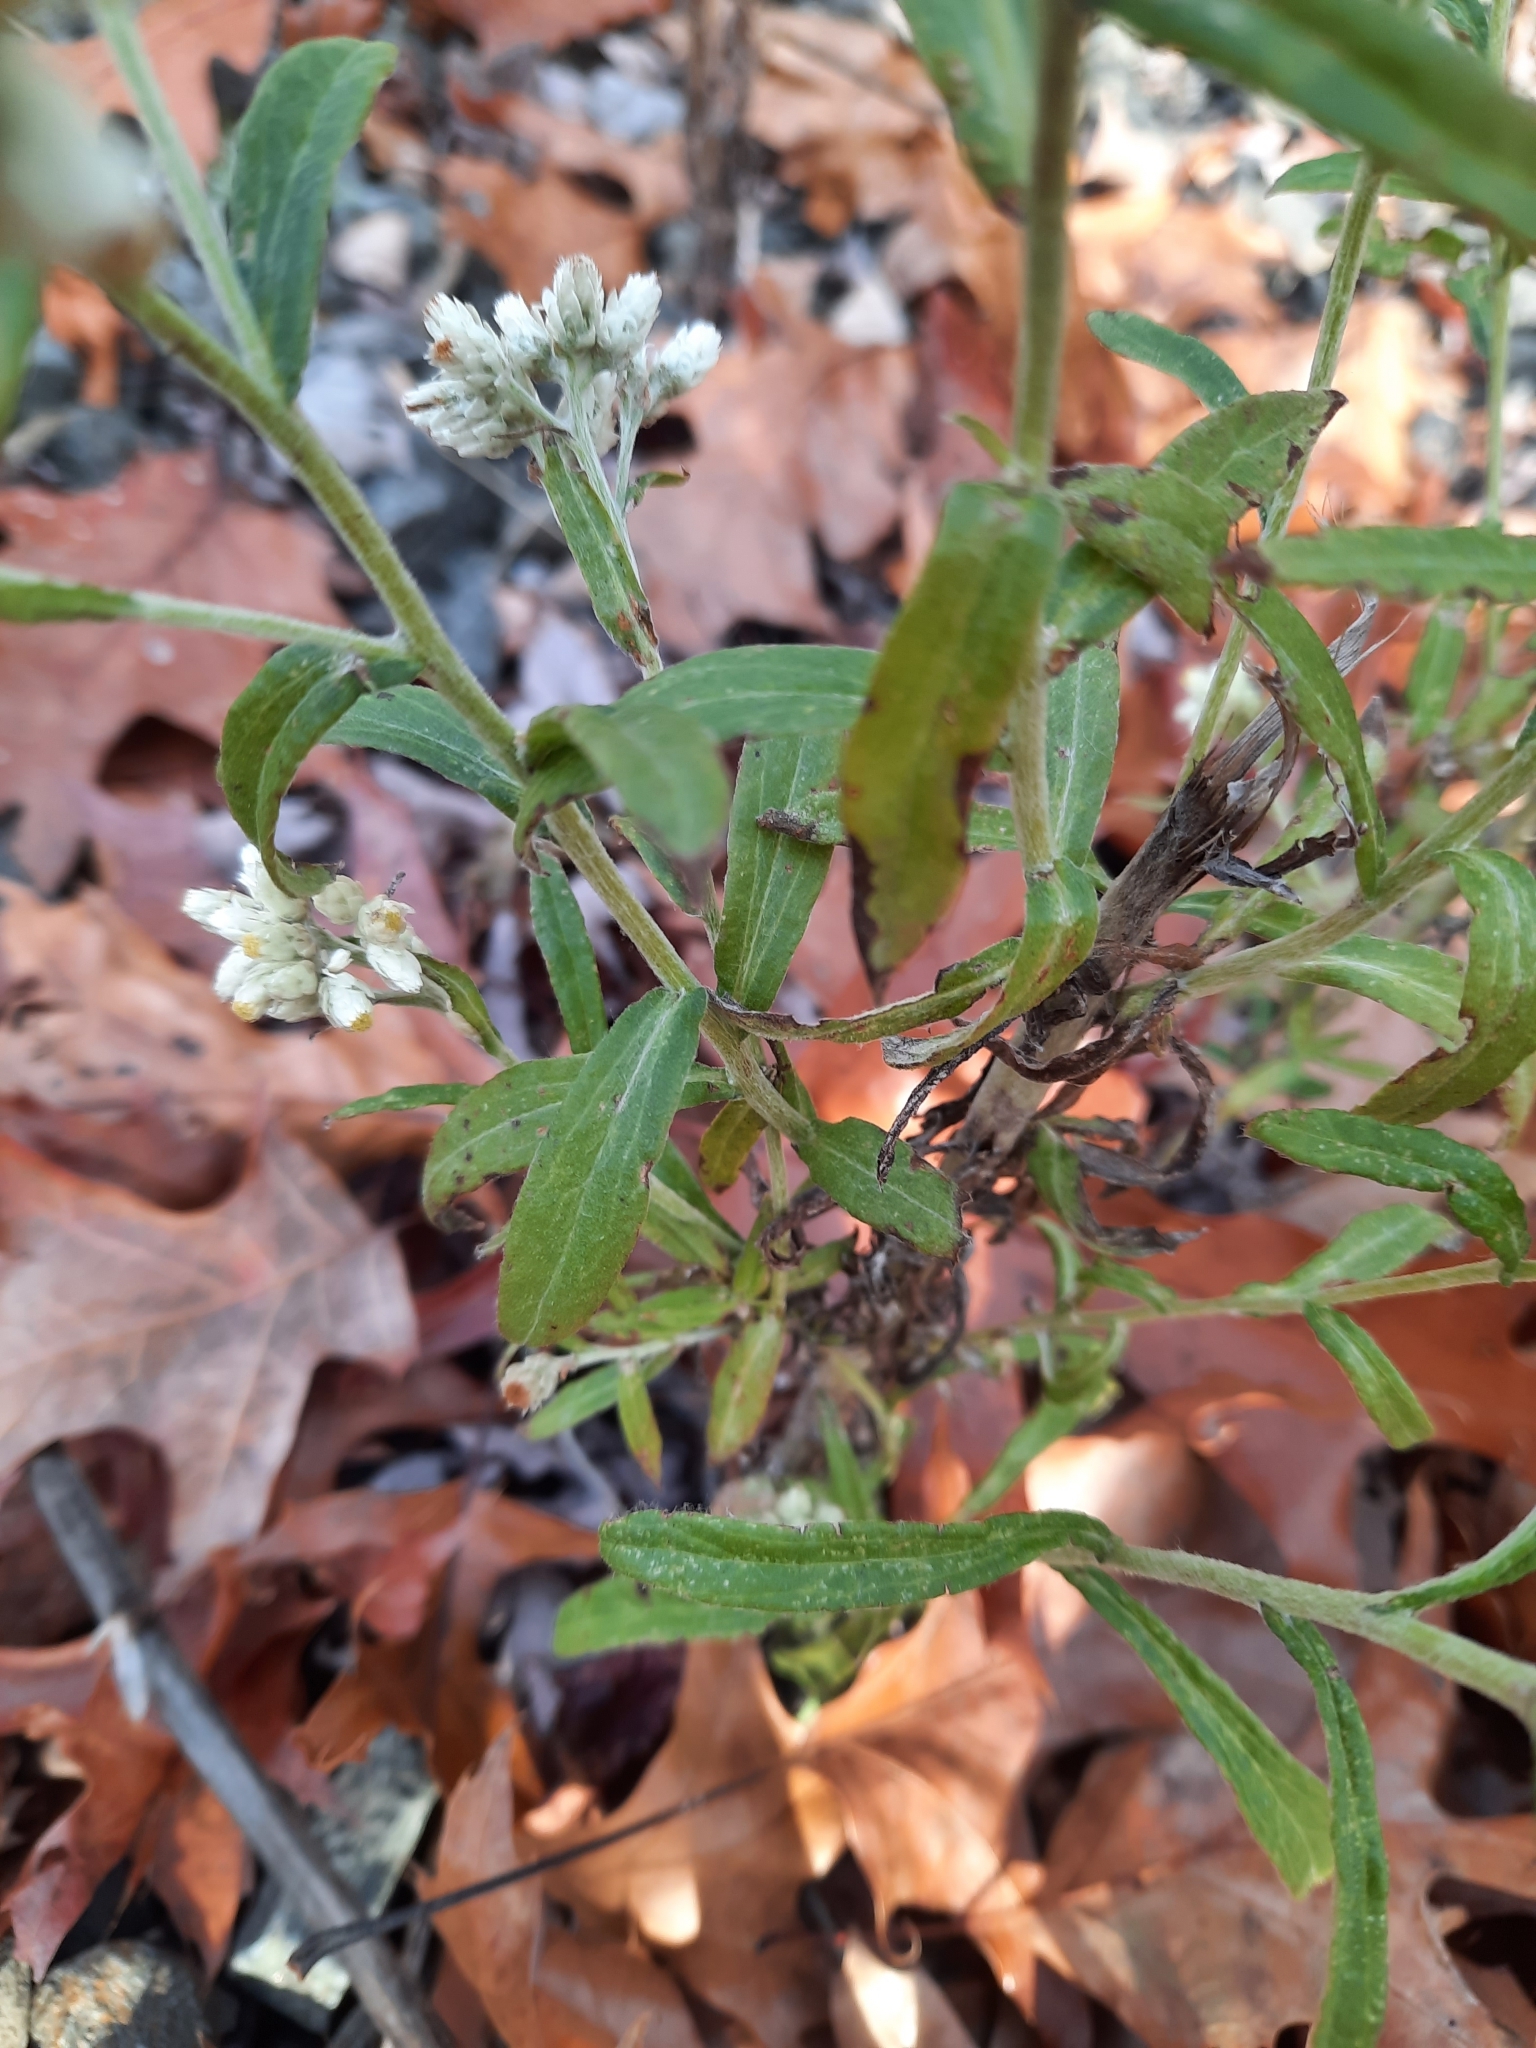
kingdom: Plantae
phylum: Tracheophyta
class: Magnoliopsida
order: Asterales
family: Asteraceae
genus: Pseudognaphalium
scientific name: Pseudognaphalium obtusifolium
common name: Eastern rabbit-tobacco
